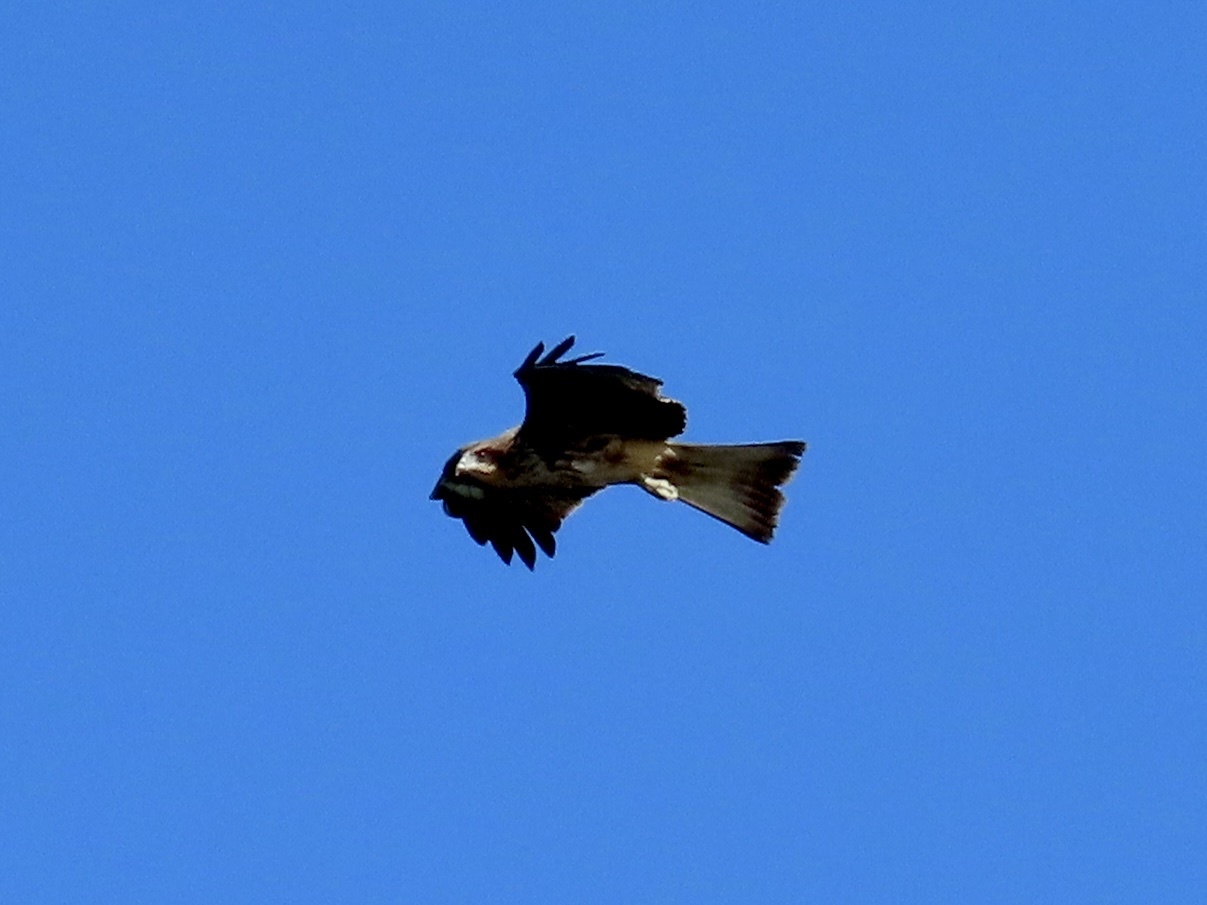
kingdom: Animalia
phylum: Chordata
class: Aves
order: Accipitriformes
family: Accipitridae
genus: Milvus
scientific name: Milvus migrans
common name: Black kite
